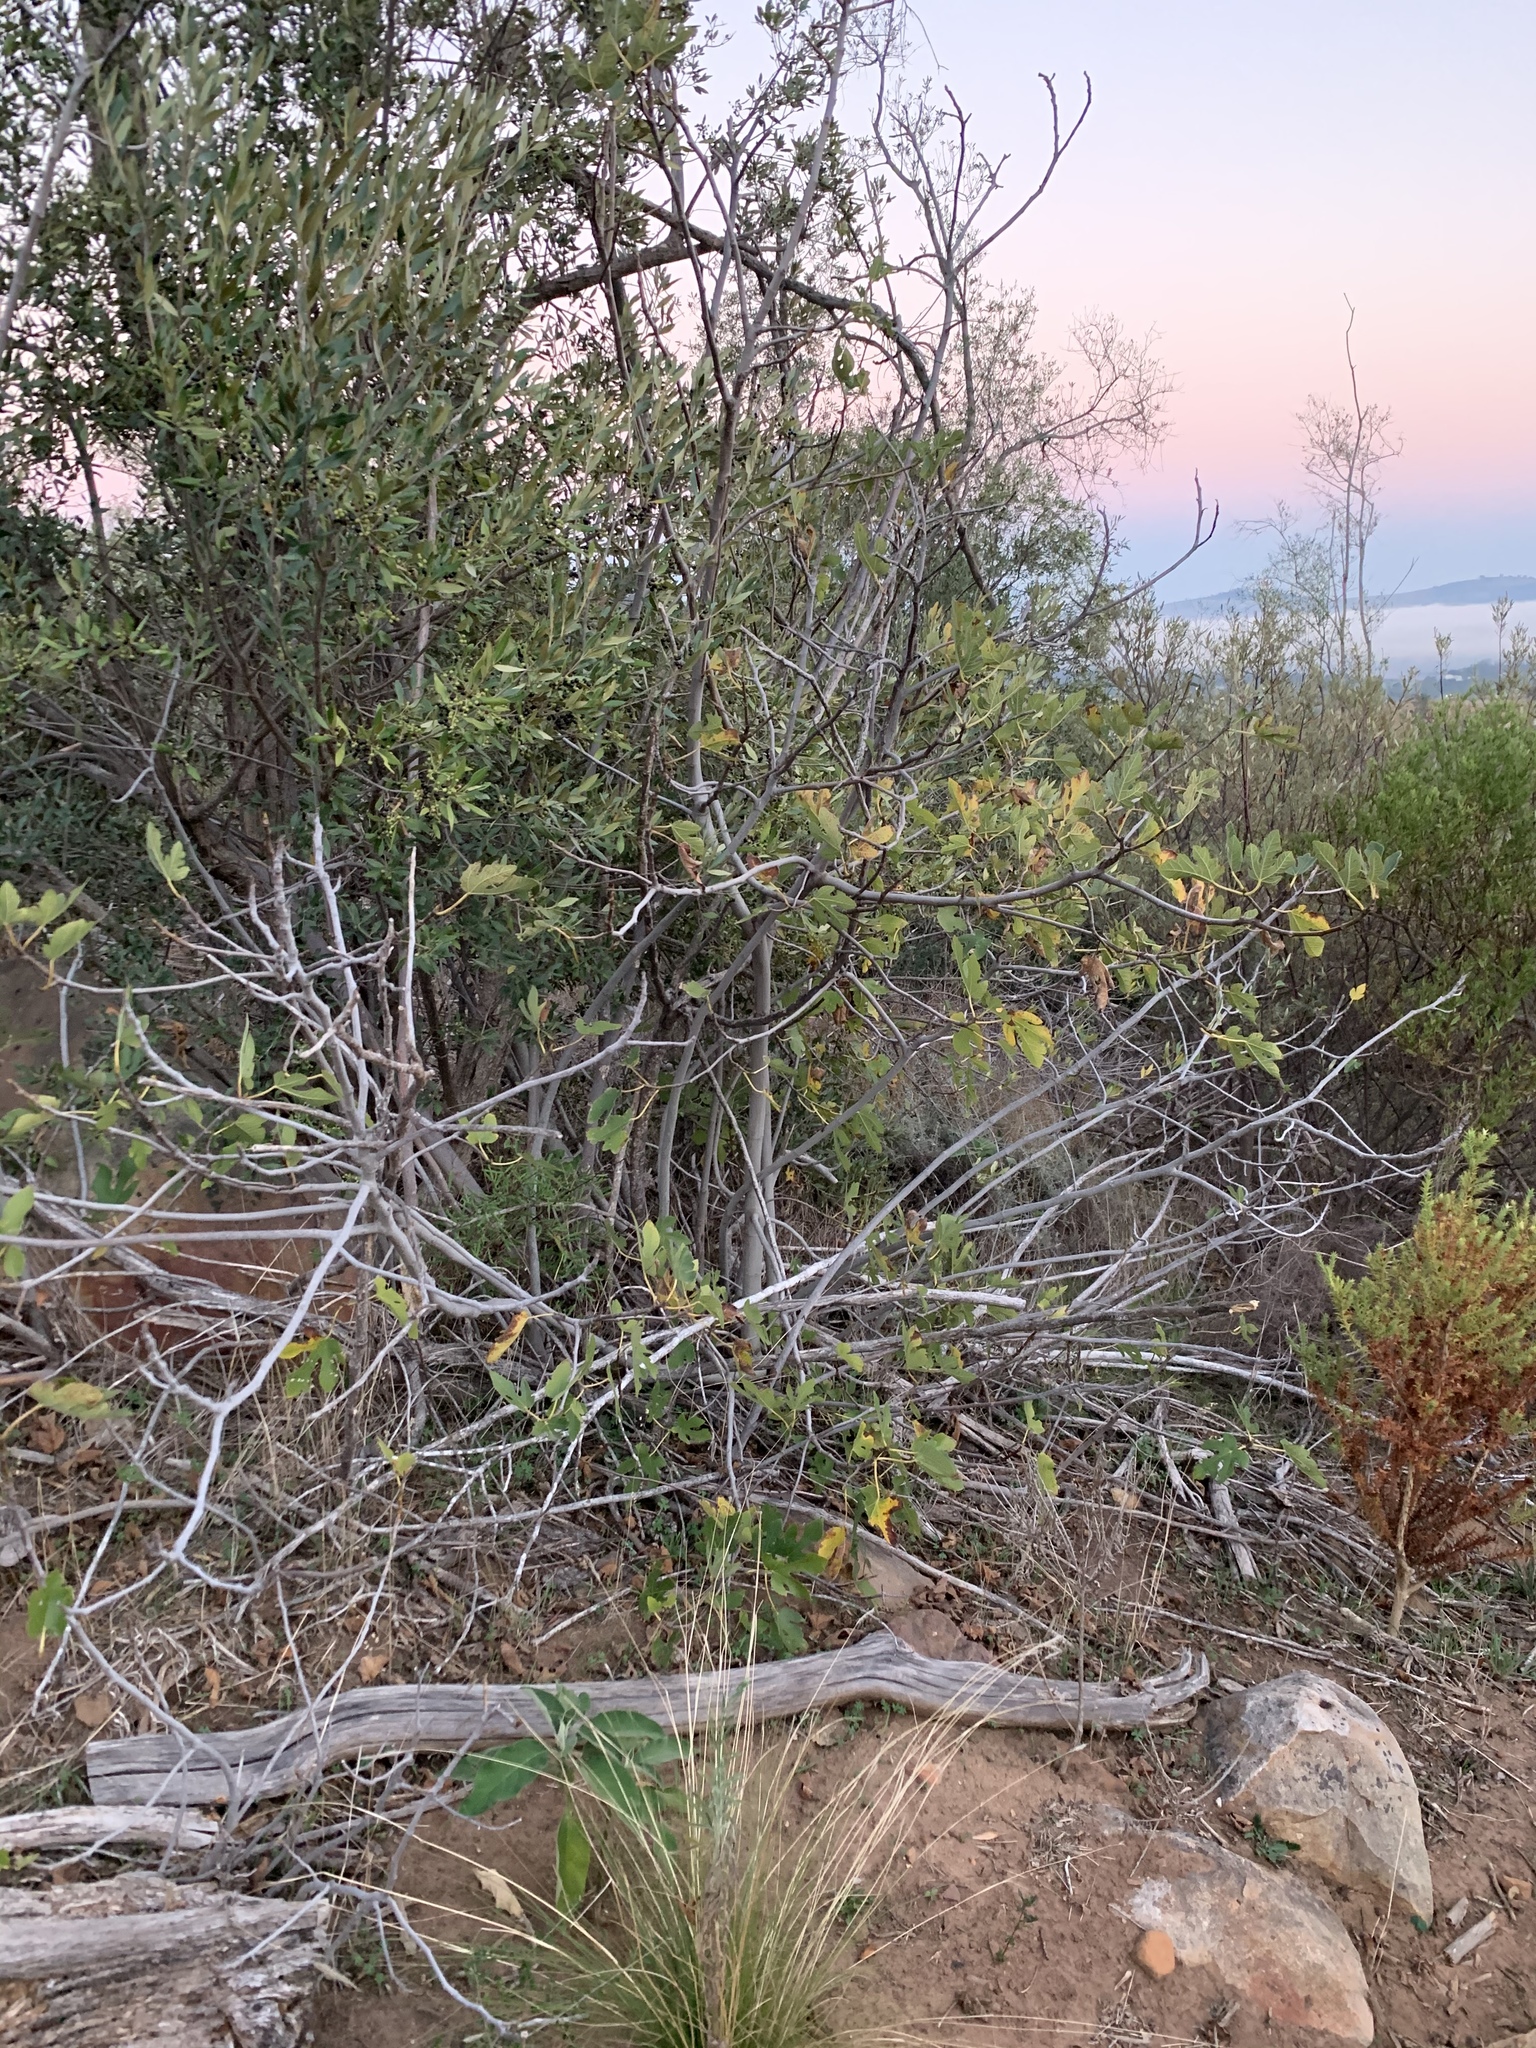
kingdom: Plantae
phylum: Tracheophyta
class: Magnoliopsida
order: Rosales
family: Moraceae
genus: Ficus
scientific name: Ficus carica
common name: Fig
